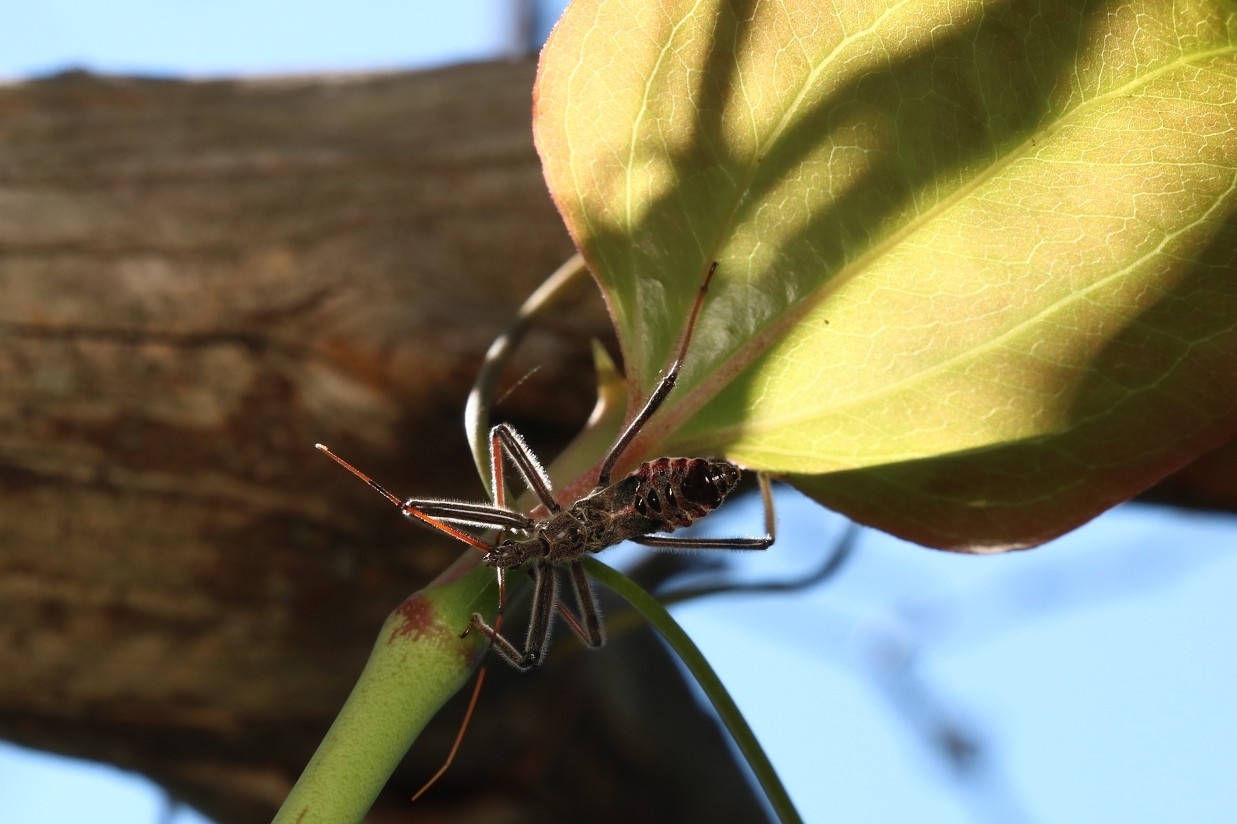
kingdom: Animalia
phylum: Arthropoda
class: Insecta
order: Hemiptera
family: Reduviidae
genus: Arilus
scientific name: Arilus cristatus
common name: North american wheel bug
